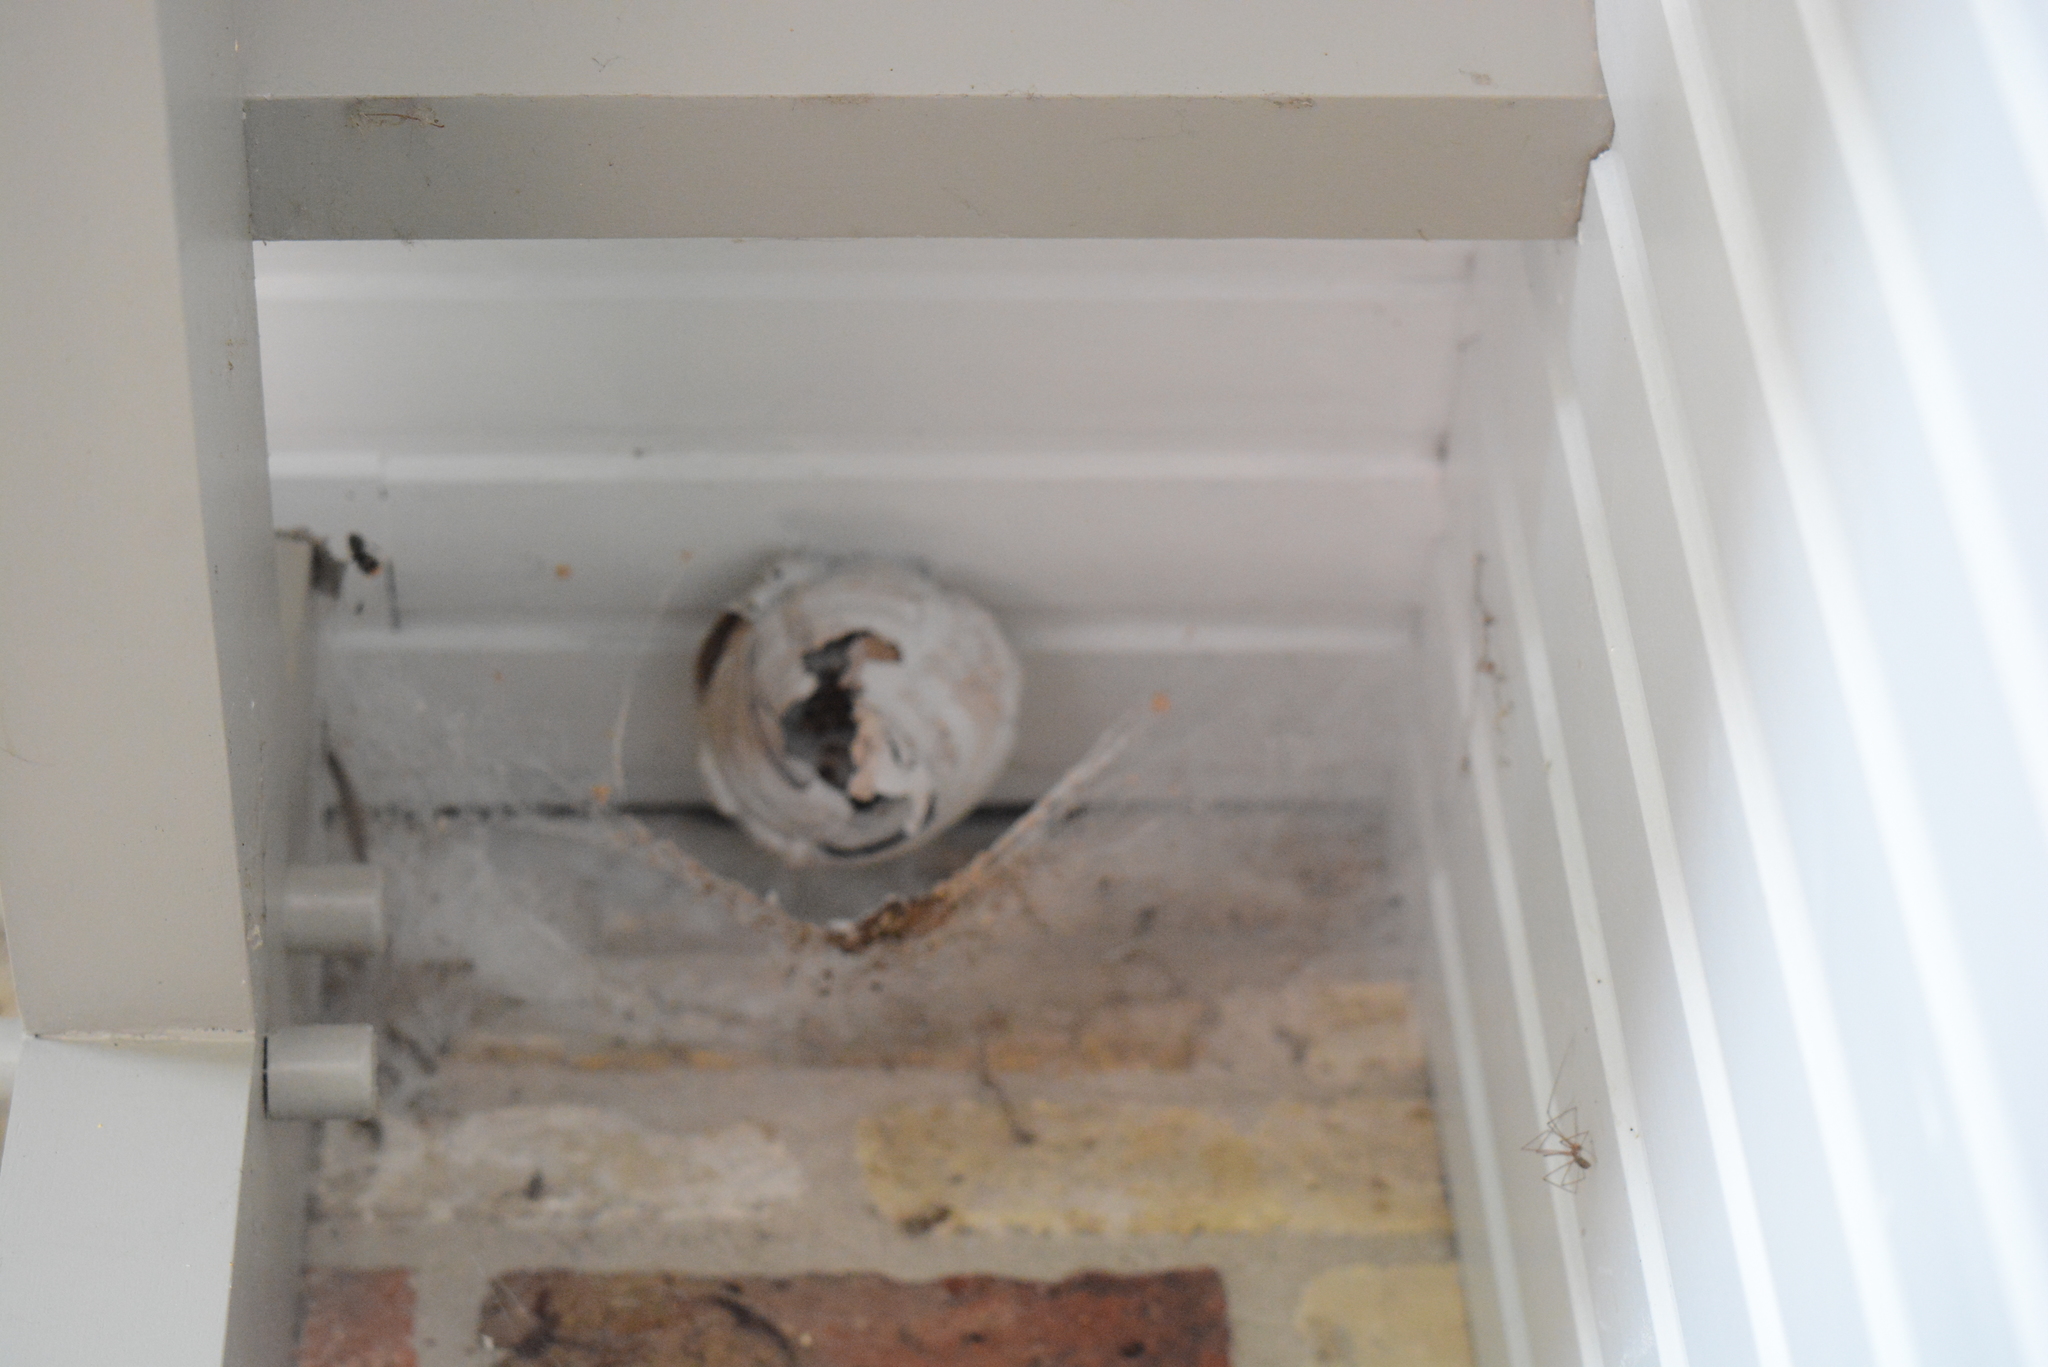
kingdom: Animalia
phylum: Arthropoda
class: Insecta
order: Hymenoptera
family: Vespidae
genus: Vespa
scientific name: Vespa velutina
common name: Asian hornet
